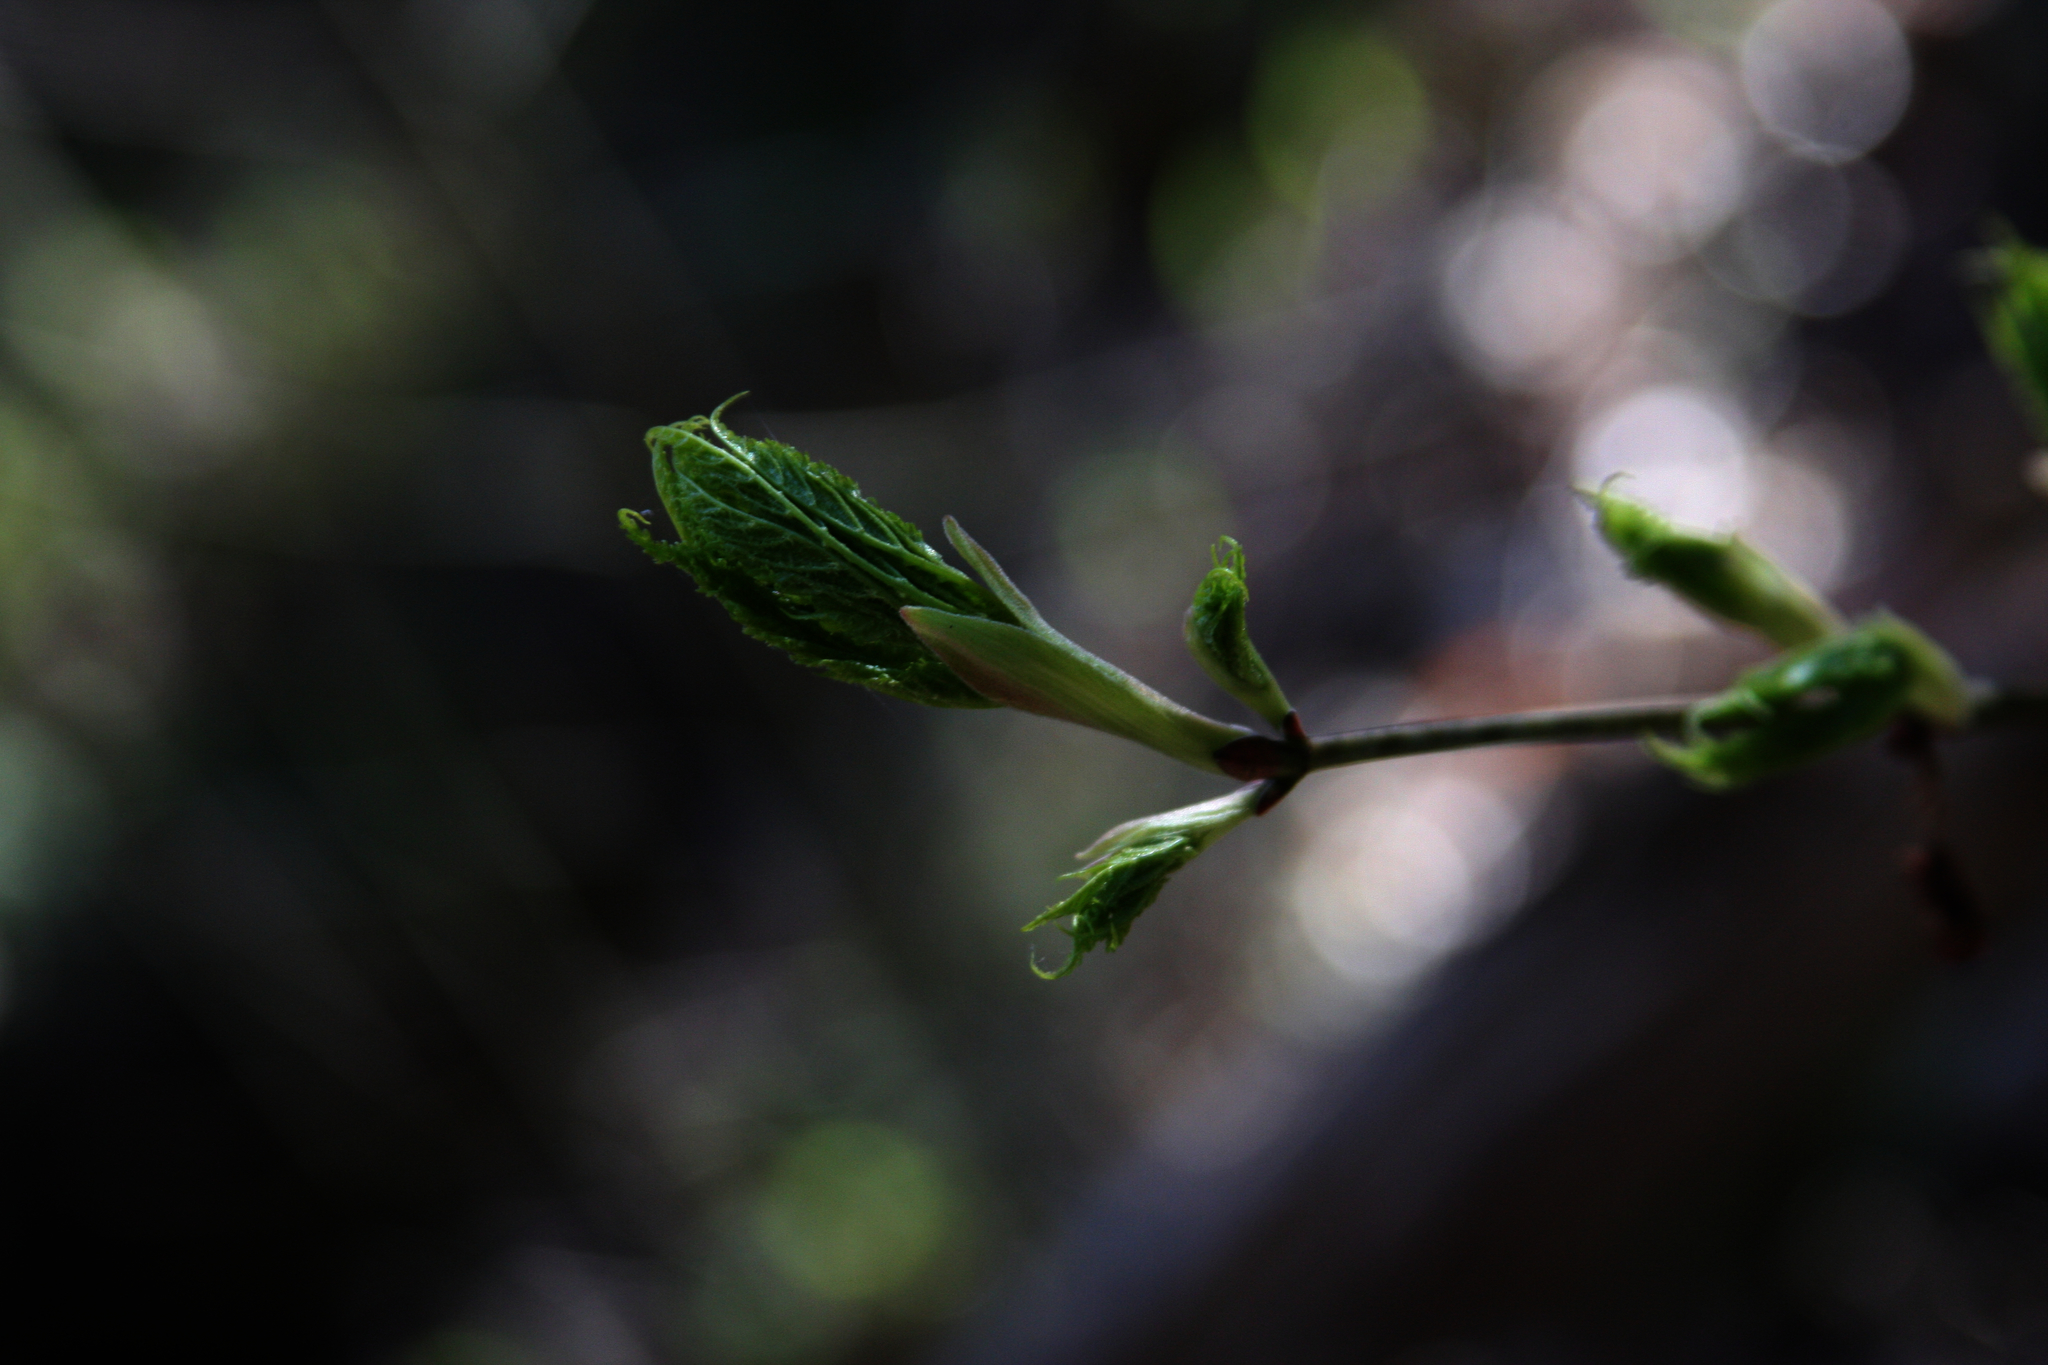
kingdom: Plantae
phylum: Tracheophyta
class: Magnoliopsida
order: Sapindales
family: Sapindaceae
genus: Acer
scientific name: Acer pensylvanicum
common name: Moosewood
